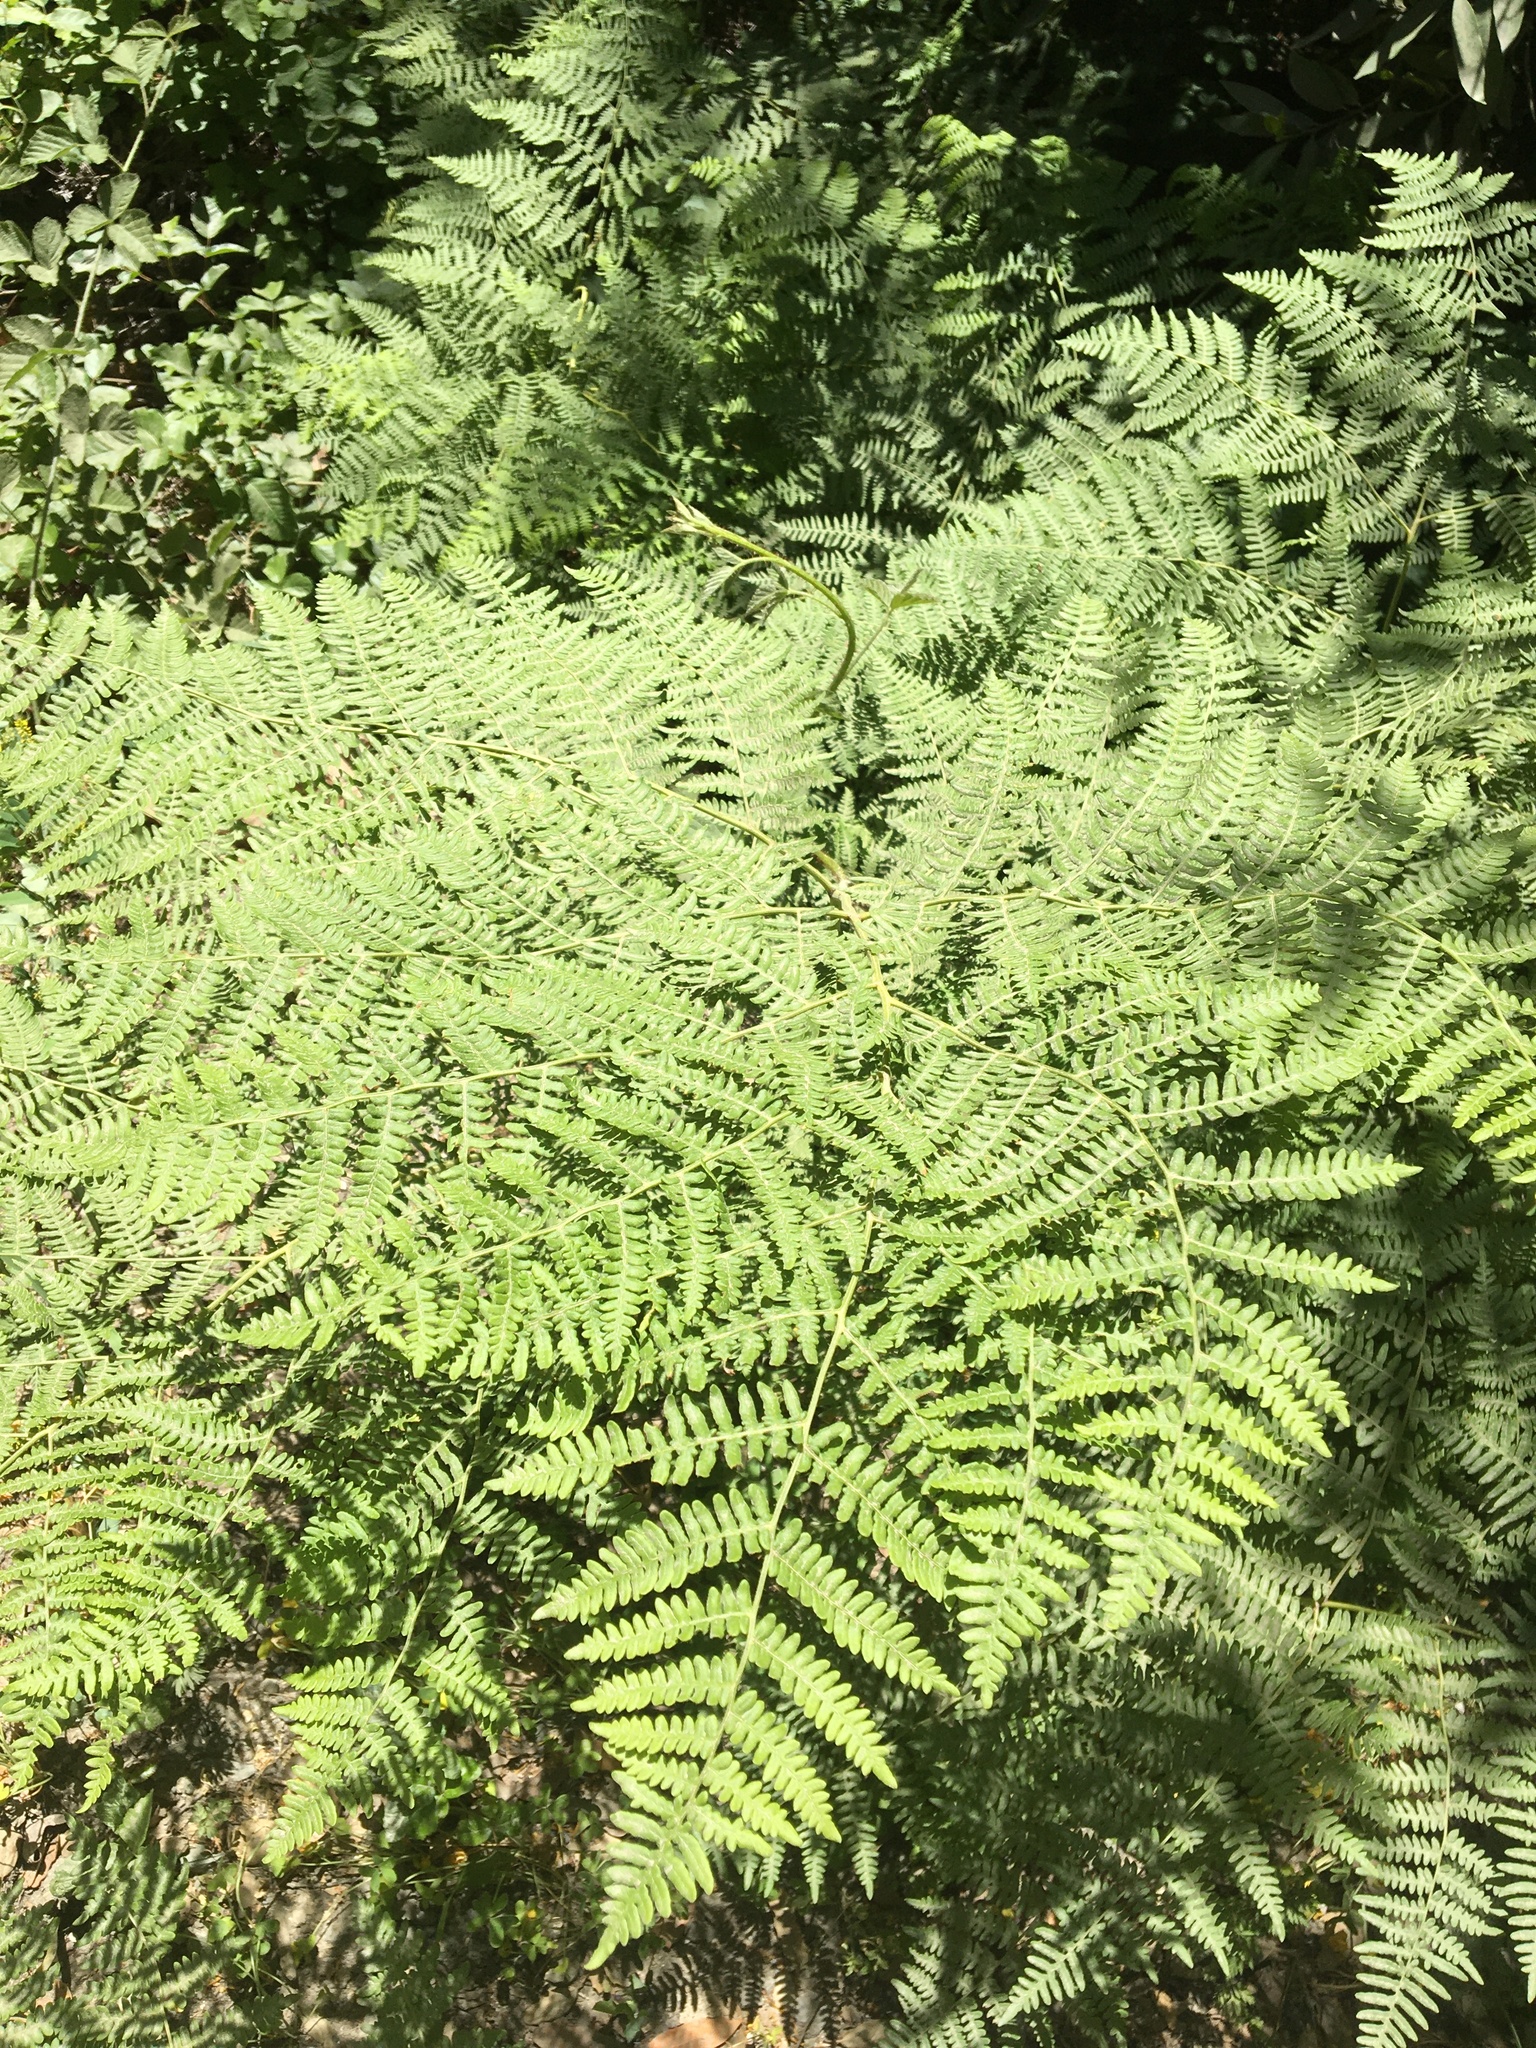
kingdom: Plantae
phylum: Tracheophyta
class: Polypodiopsida
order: Polypodiales
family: Dennstaedtiaceae
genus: Pteridium
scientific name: Pteridium aquilinum
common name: Bracken
